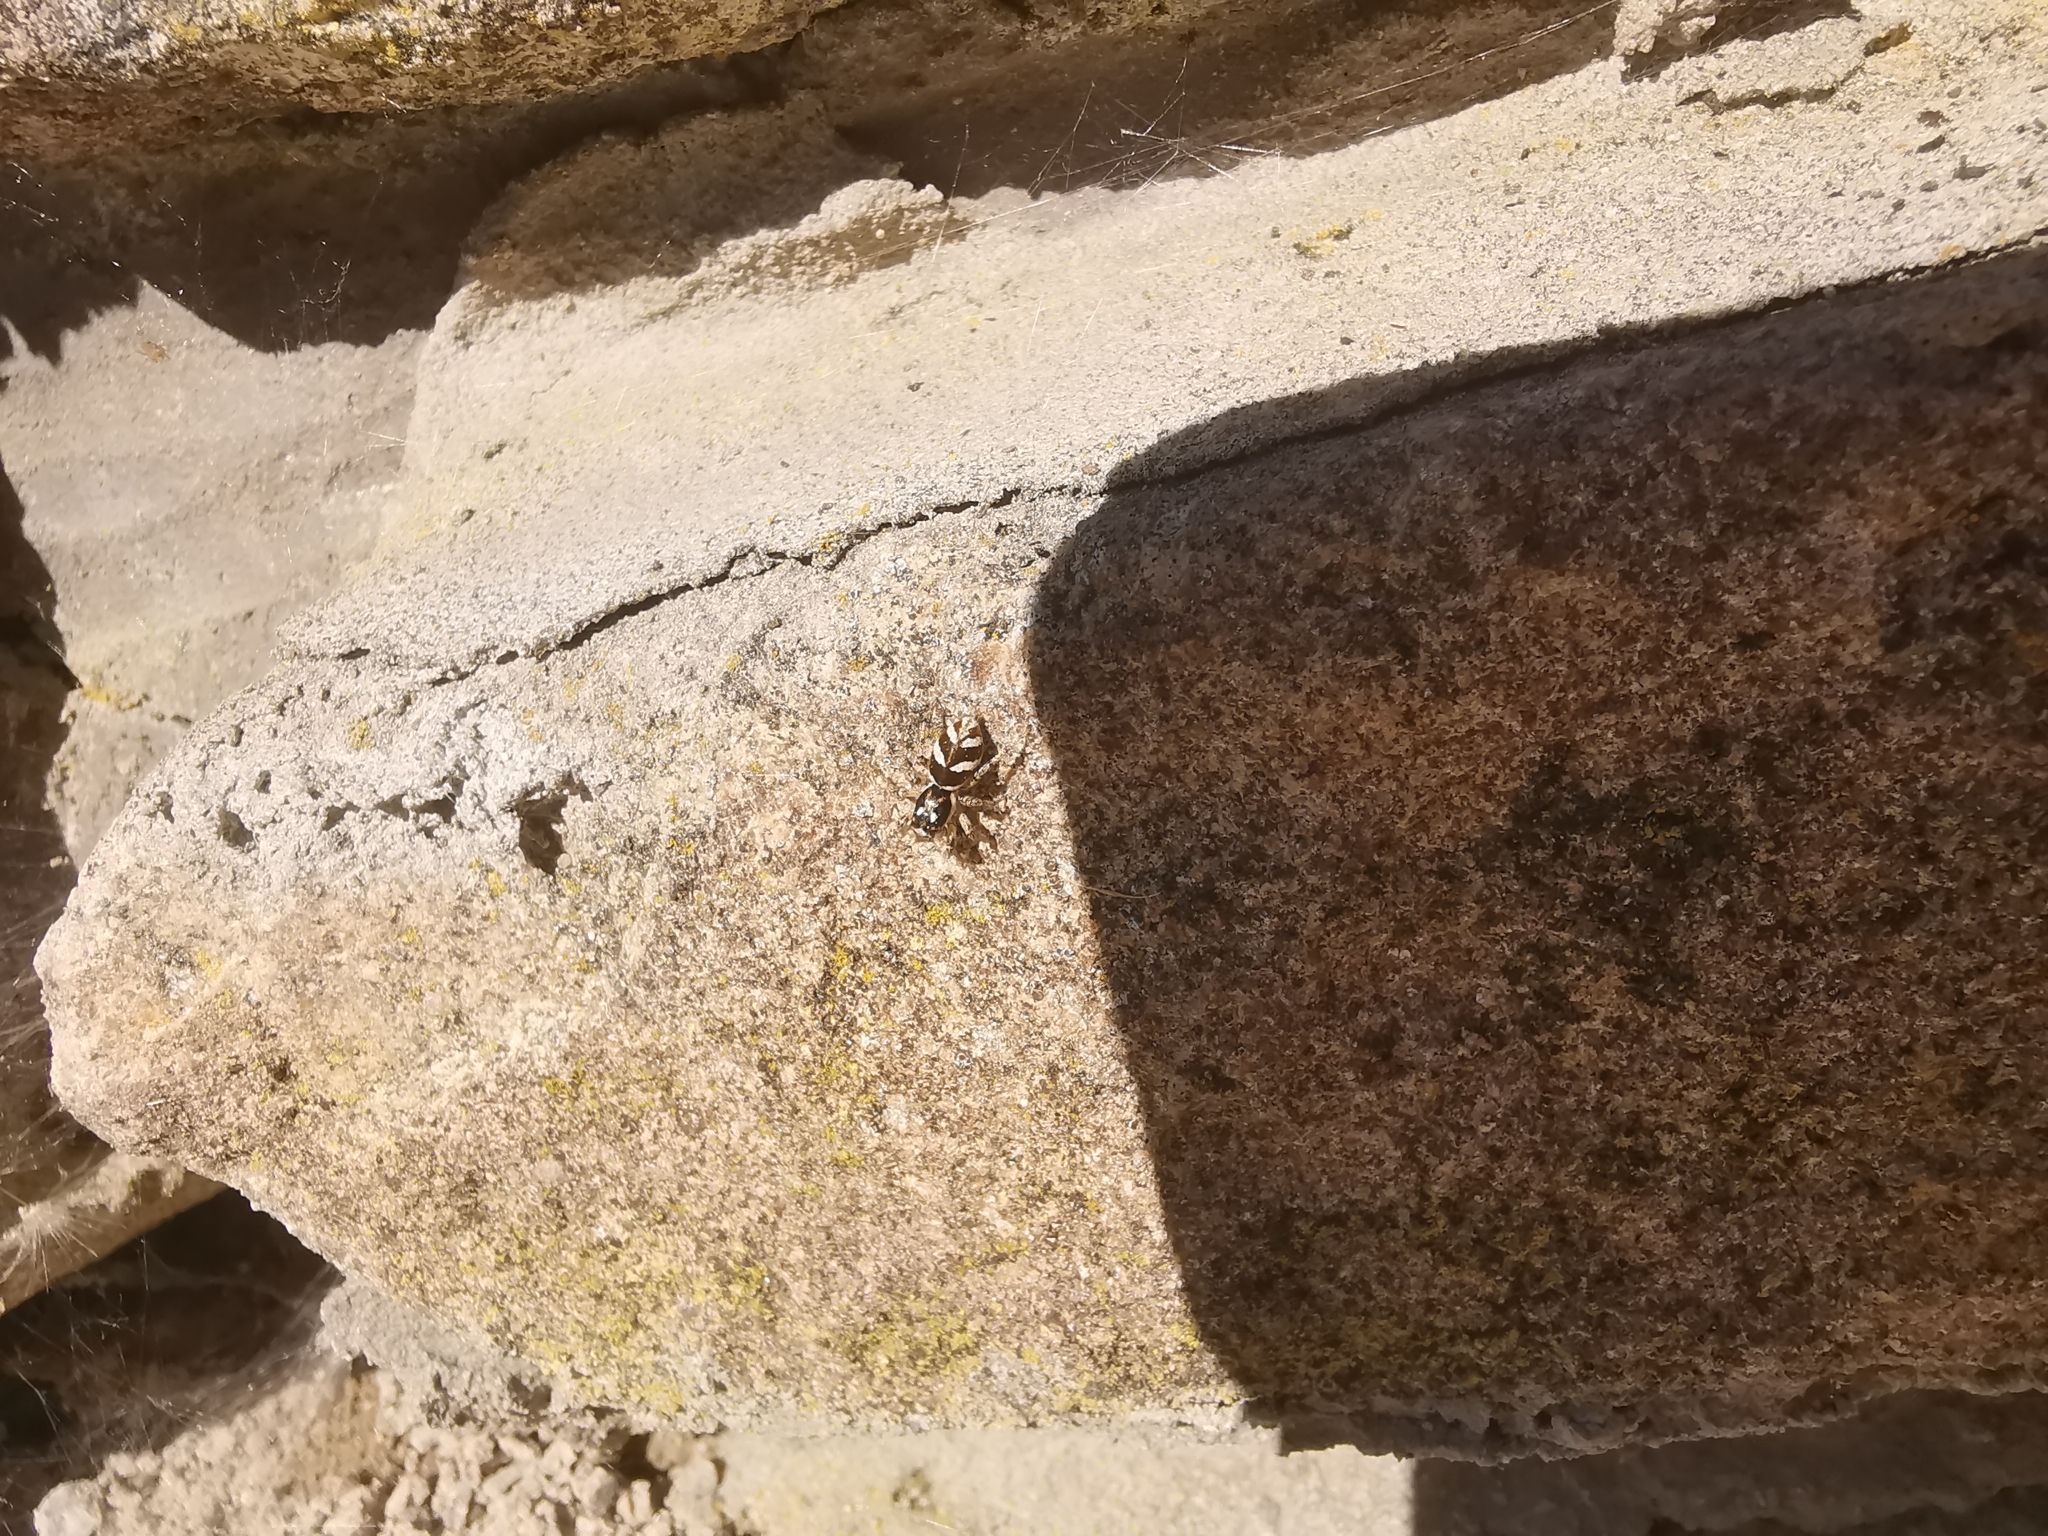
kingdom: Animalia
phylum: Arthropoda
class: Arachnida
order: Araneae
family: Salticidae
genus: Salticus
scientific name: Salticus scenicus
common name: Zebra jumper
